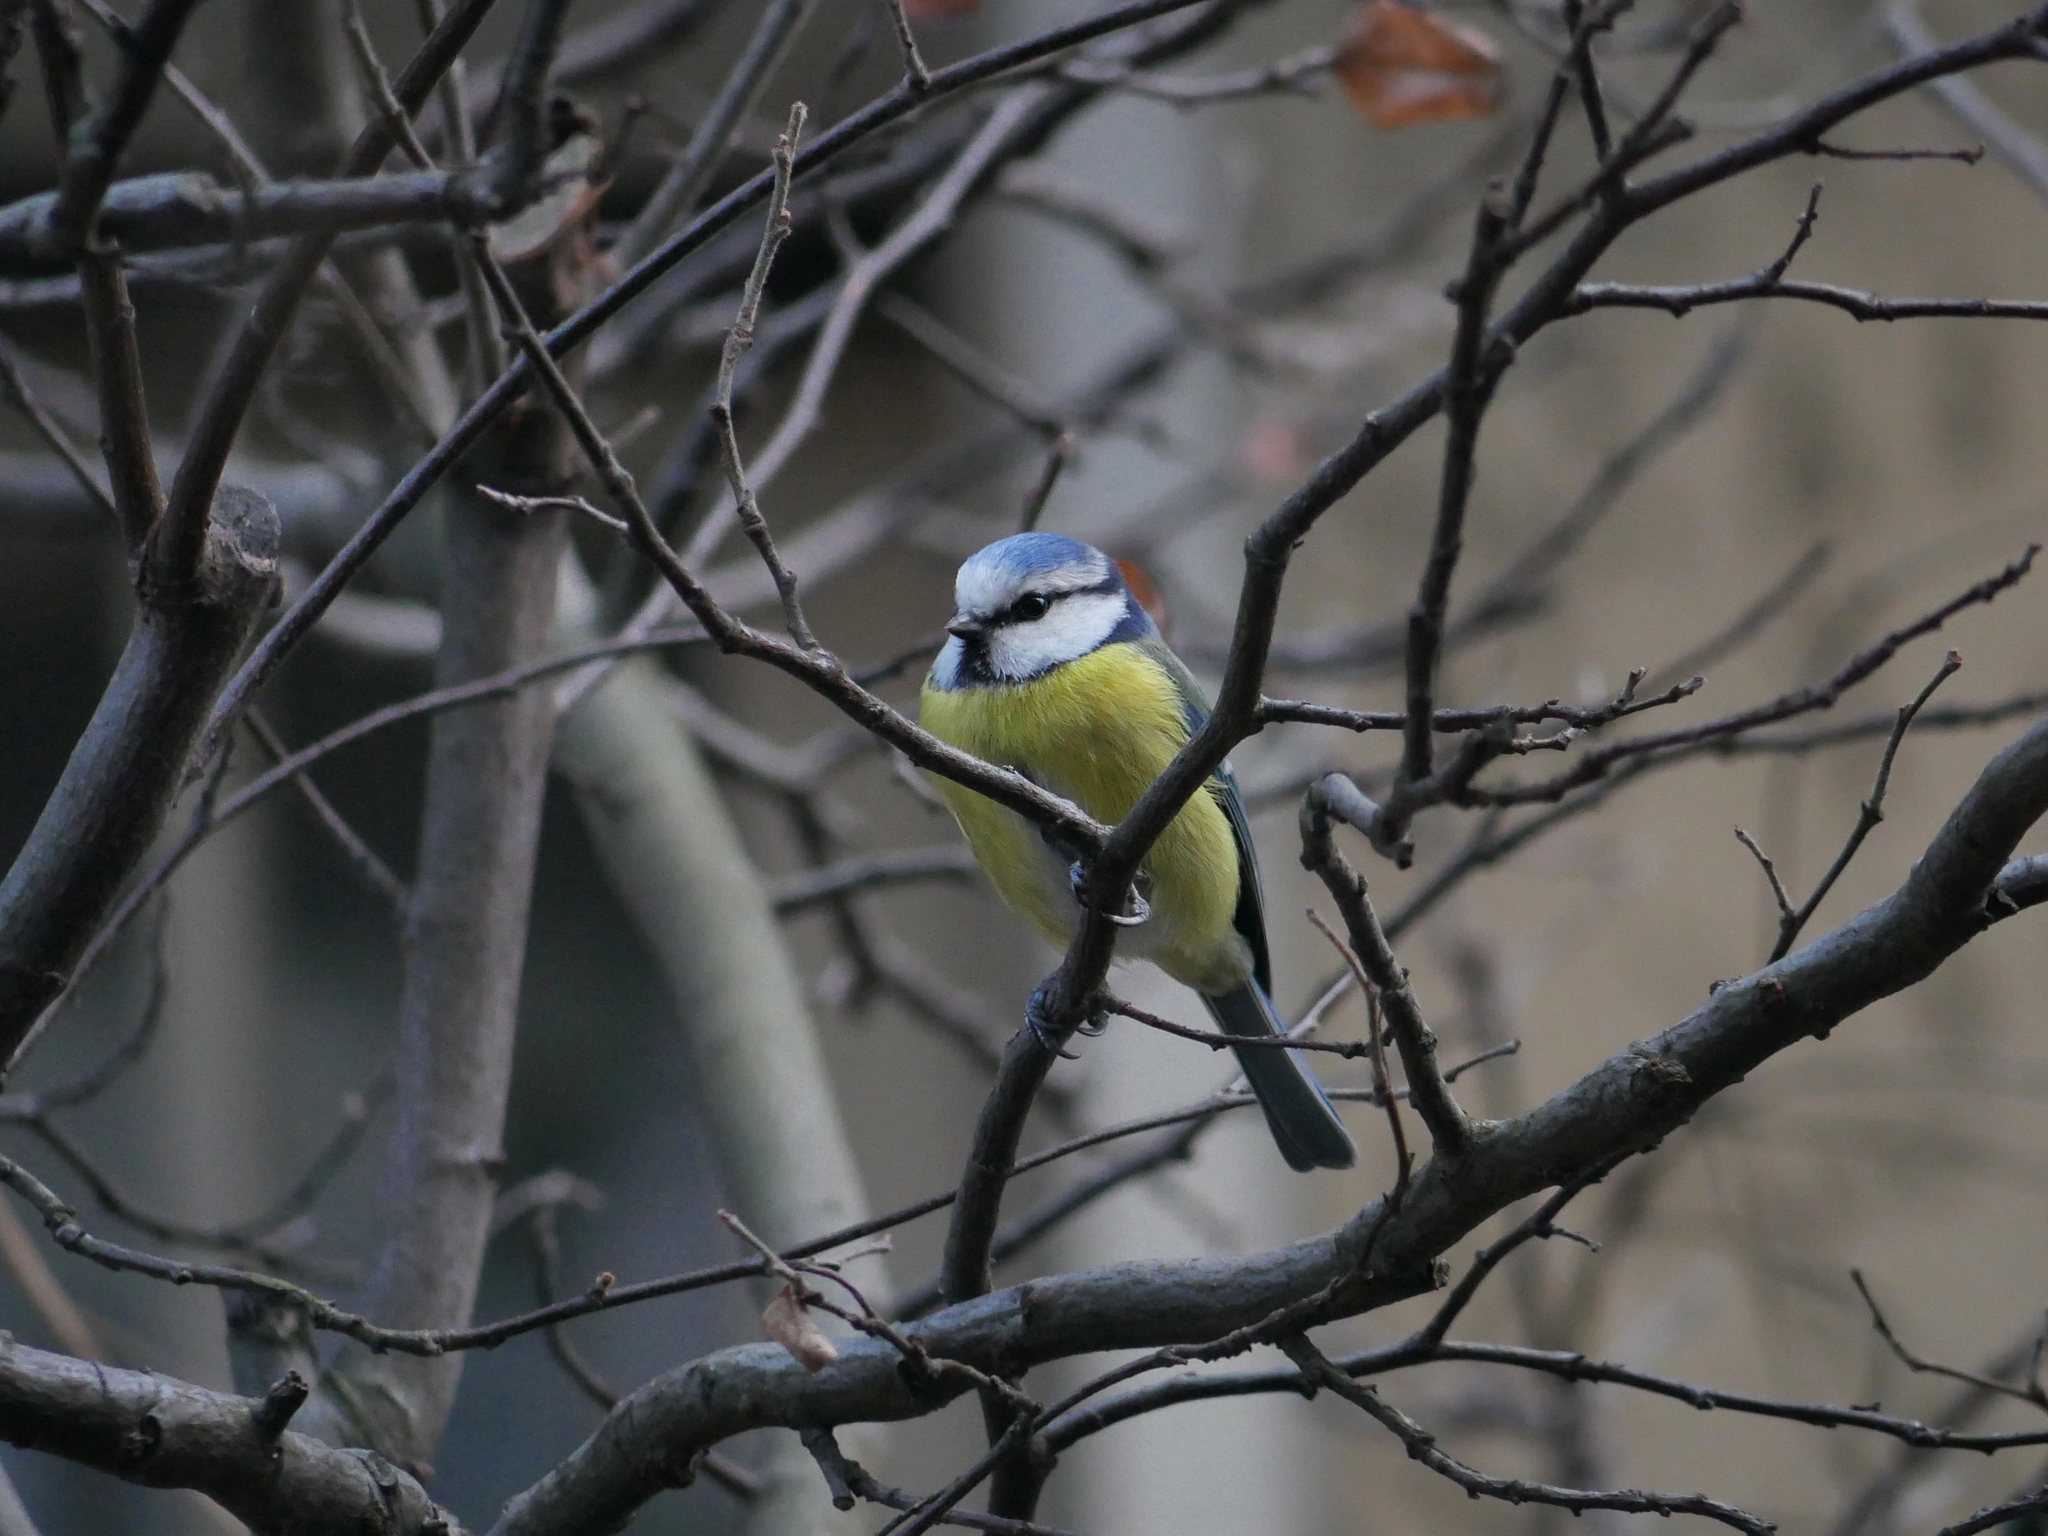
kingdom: Animalia
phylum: Chordata
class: Aves
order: Passeriformes
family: Paridae
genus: Cyanistes
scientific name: Cyanistes caeruleus
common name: Eurasian blue tit
